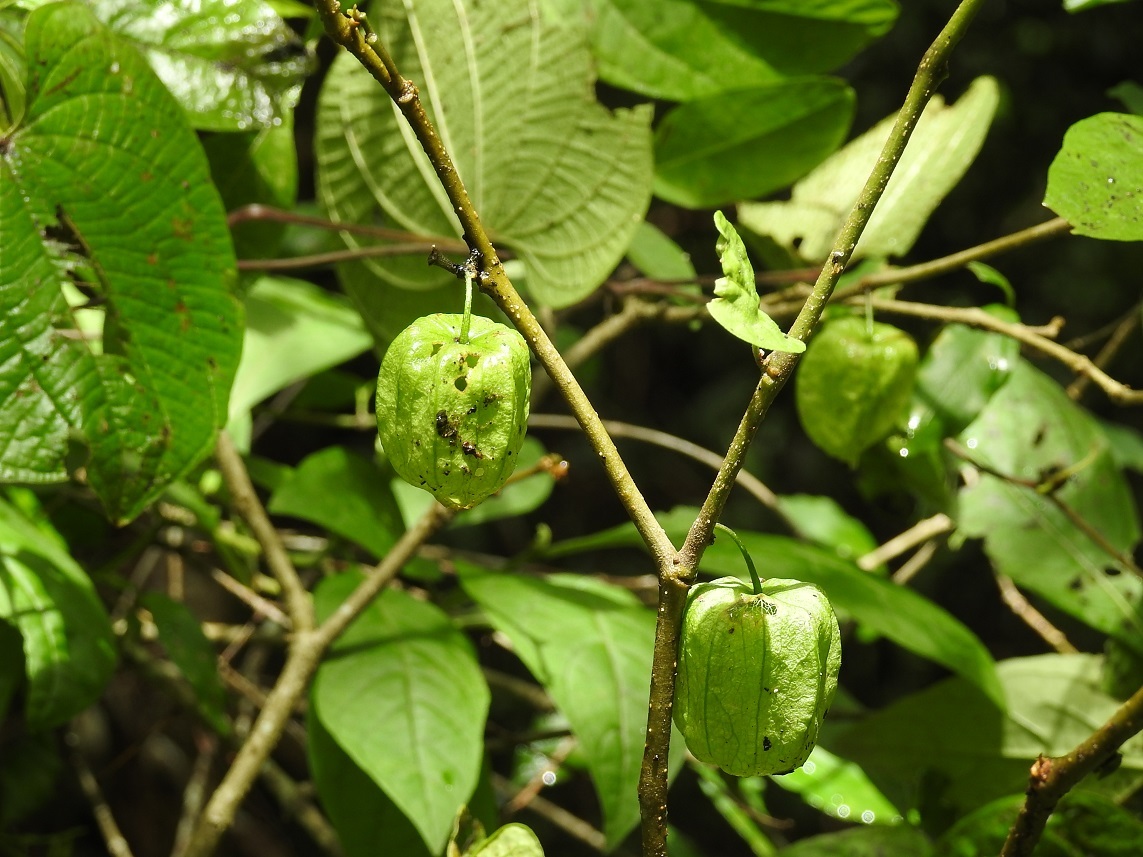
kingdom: Plantae
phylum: Tracheophyta
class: Magnoliopsida
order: Solanales
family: Solanaceae
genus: Physalis
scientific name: Physalis solanacea
